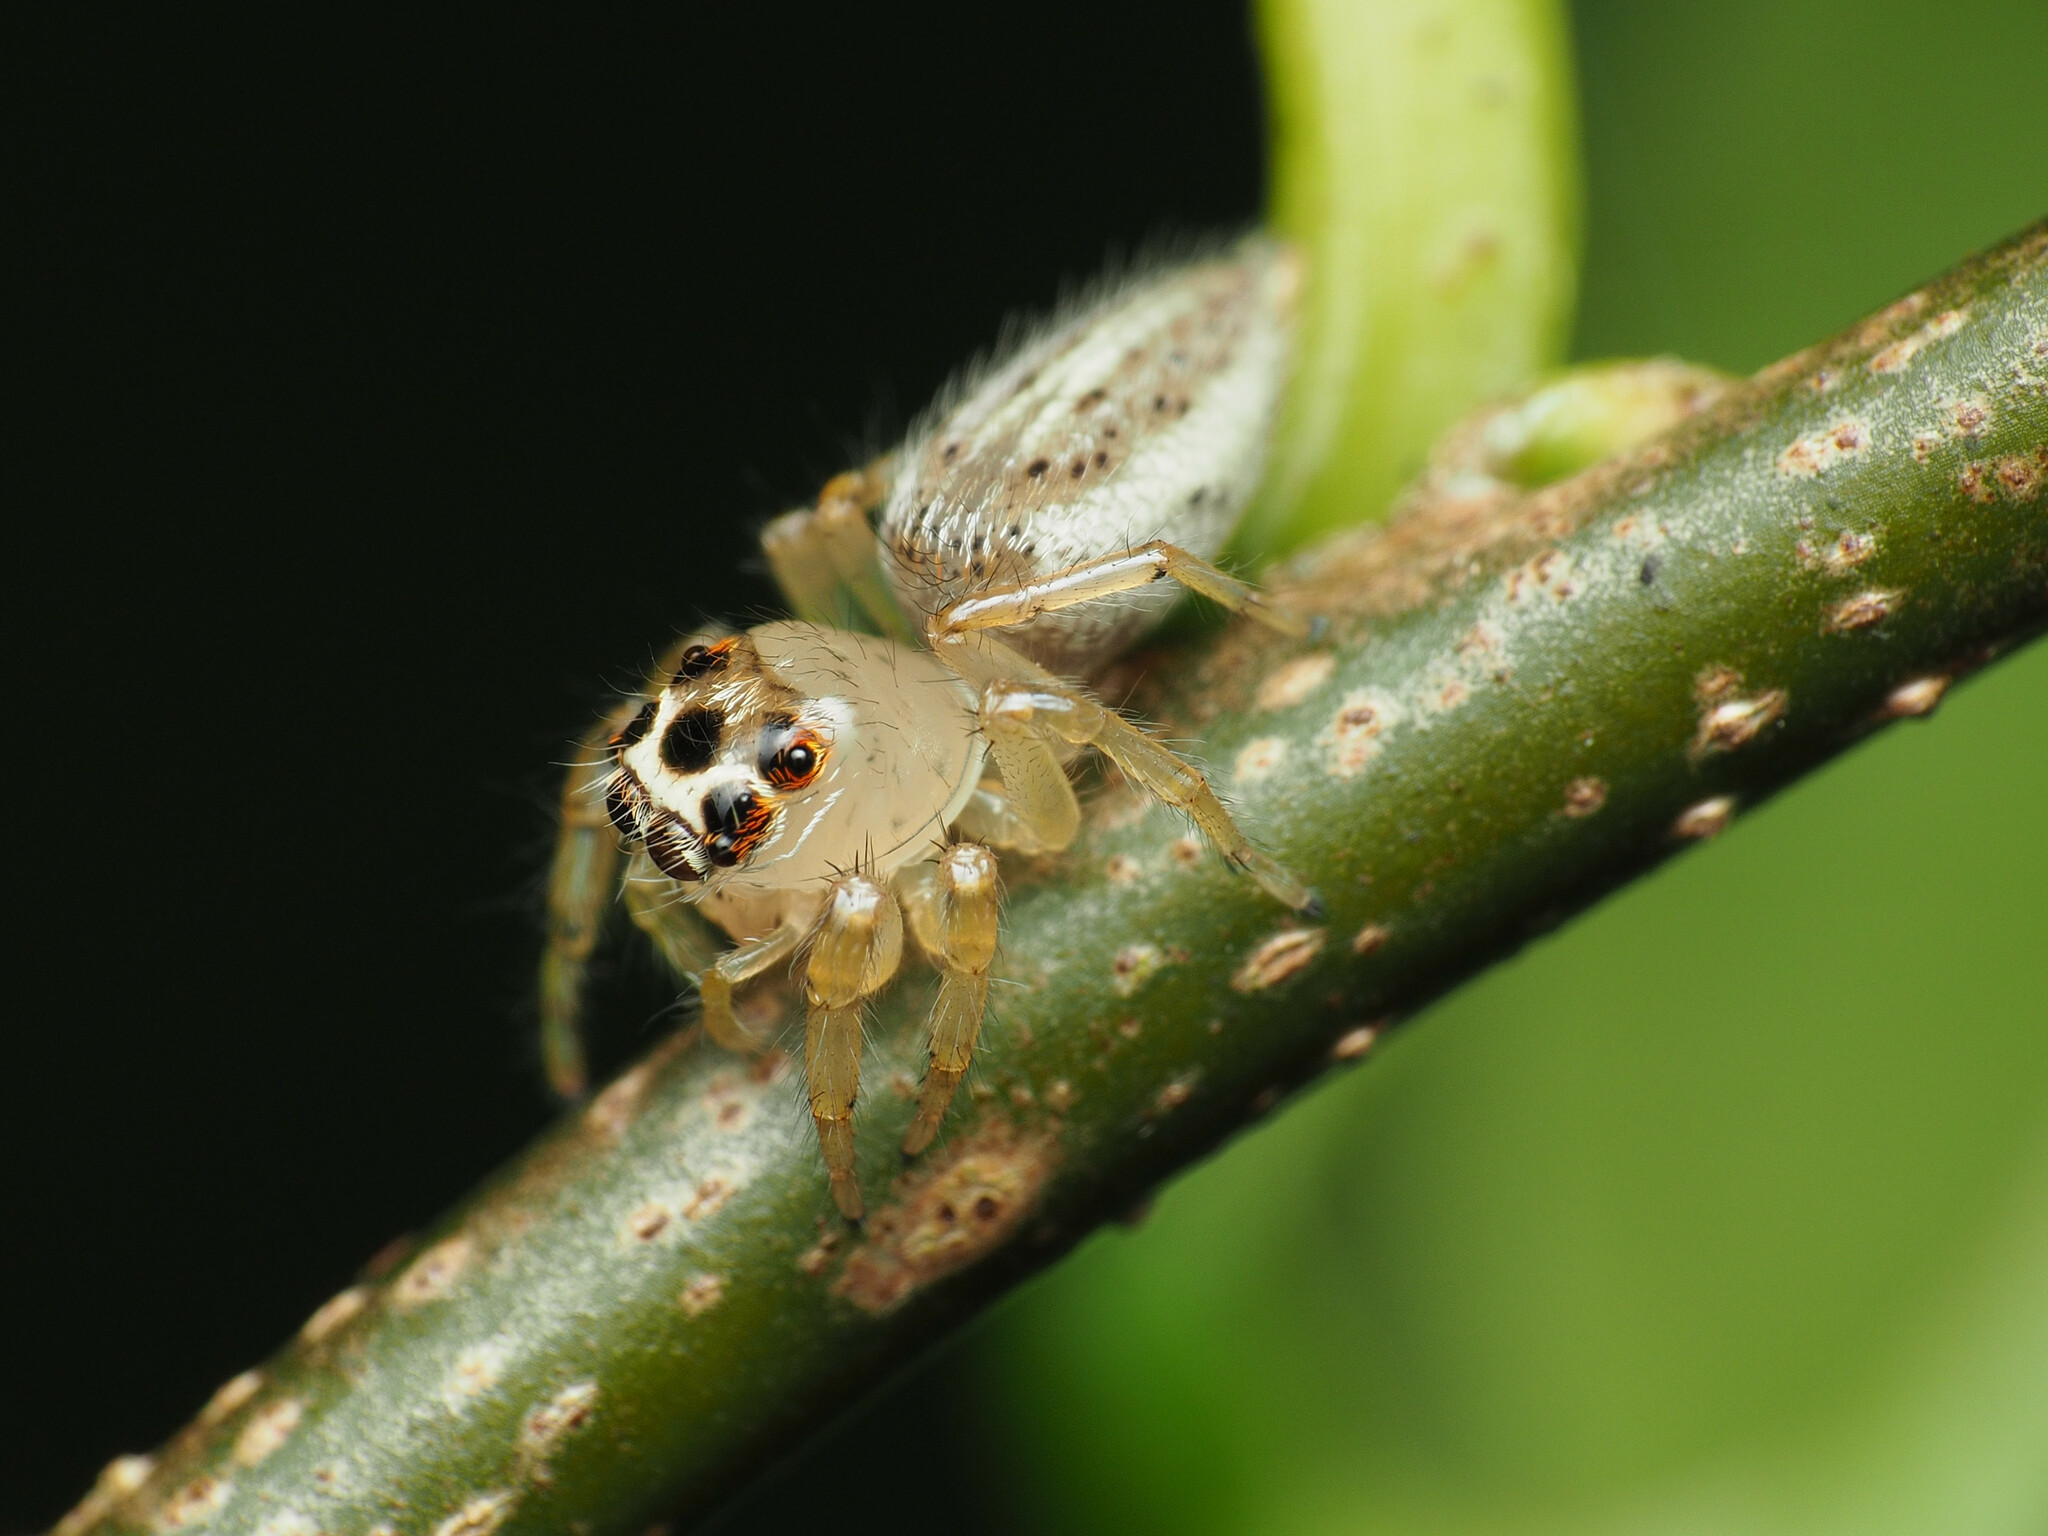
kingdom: Animalia
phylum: Arthropoda
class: Arachnida
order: Araneae
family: Salticidae
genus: Colonus
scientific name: Colonus sylvanus
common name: Jumping spiders
